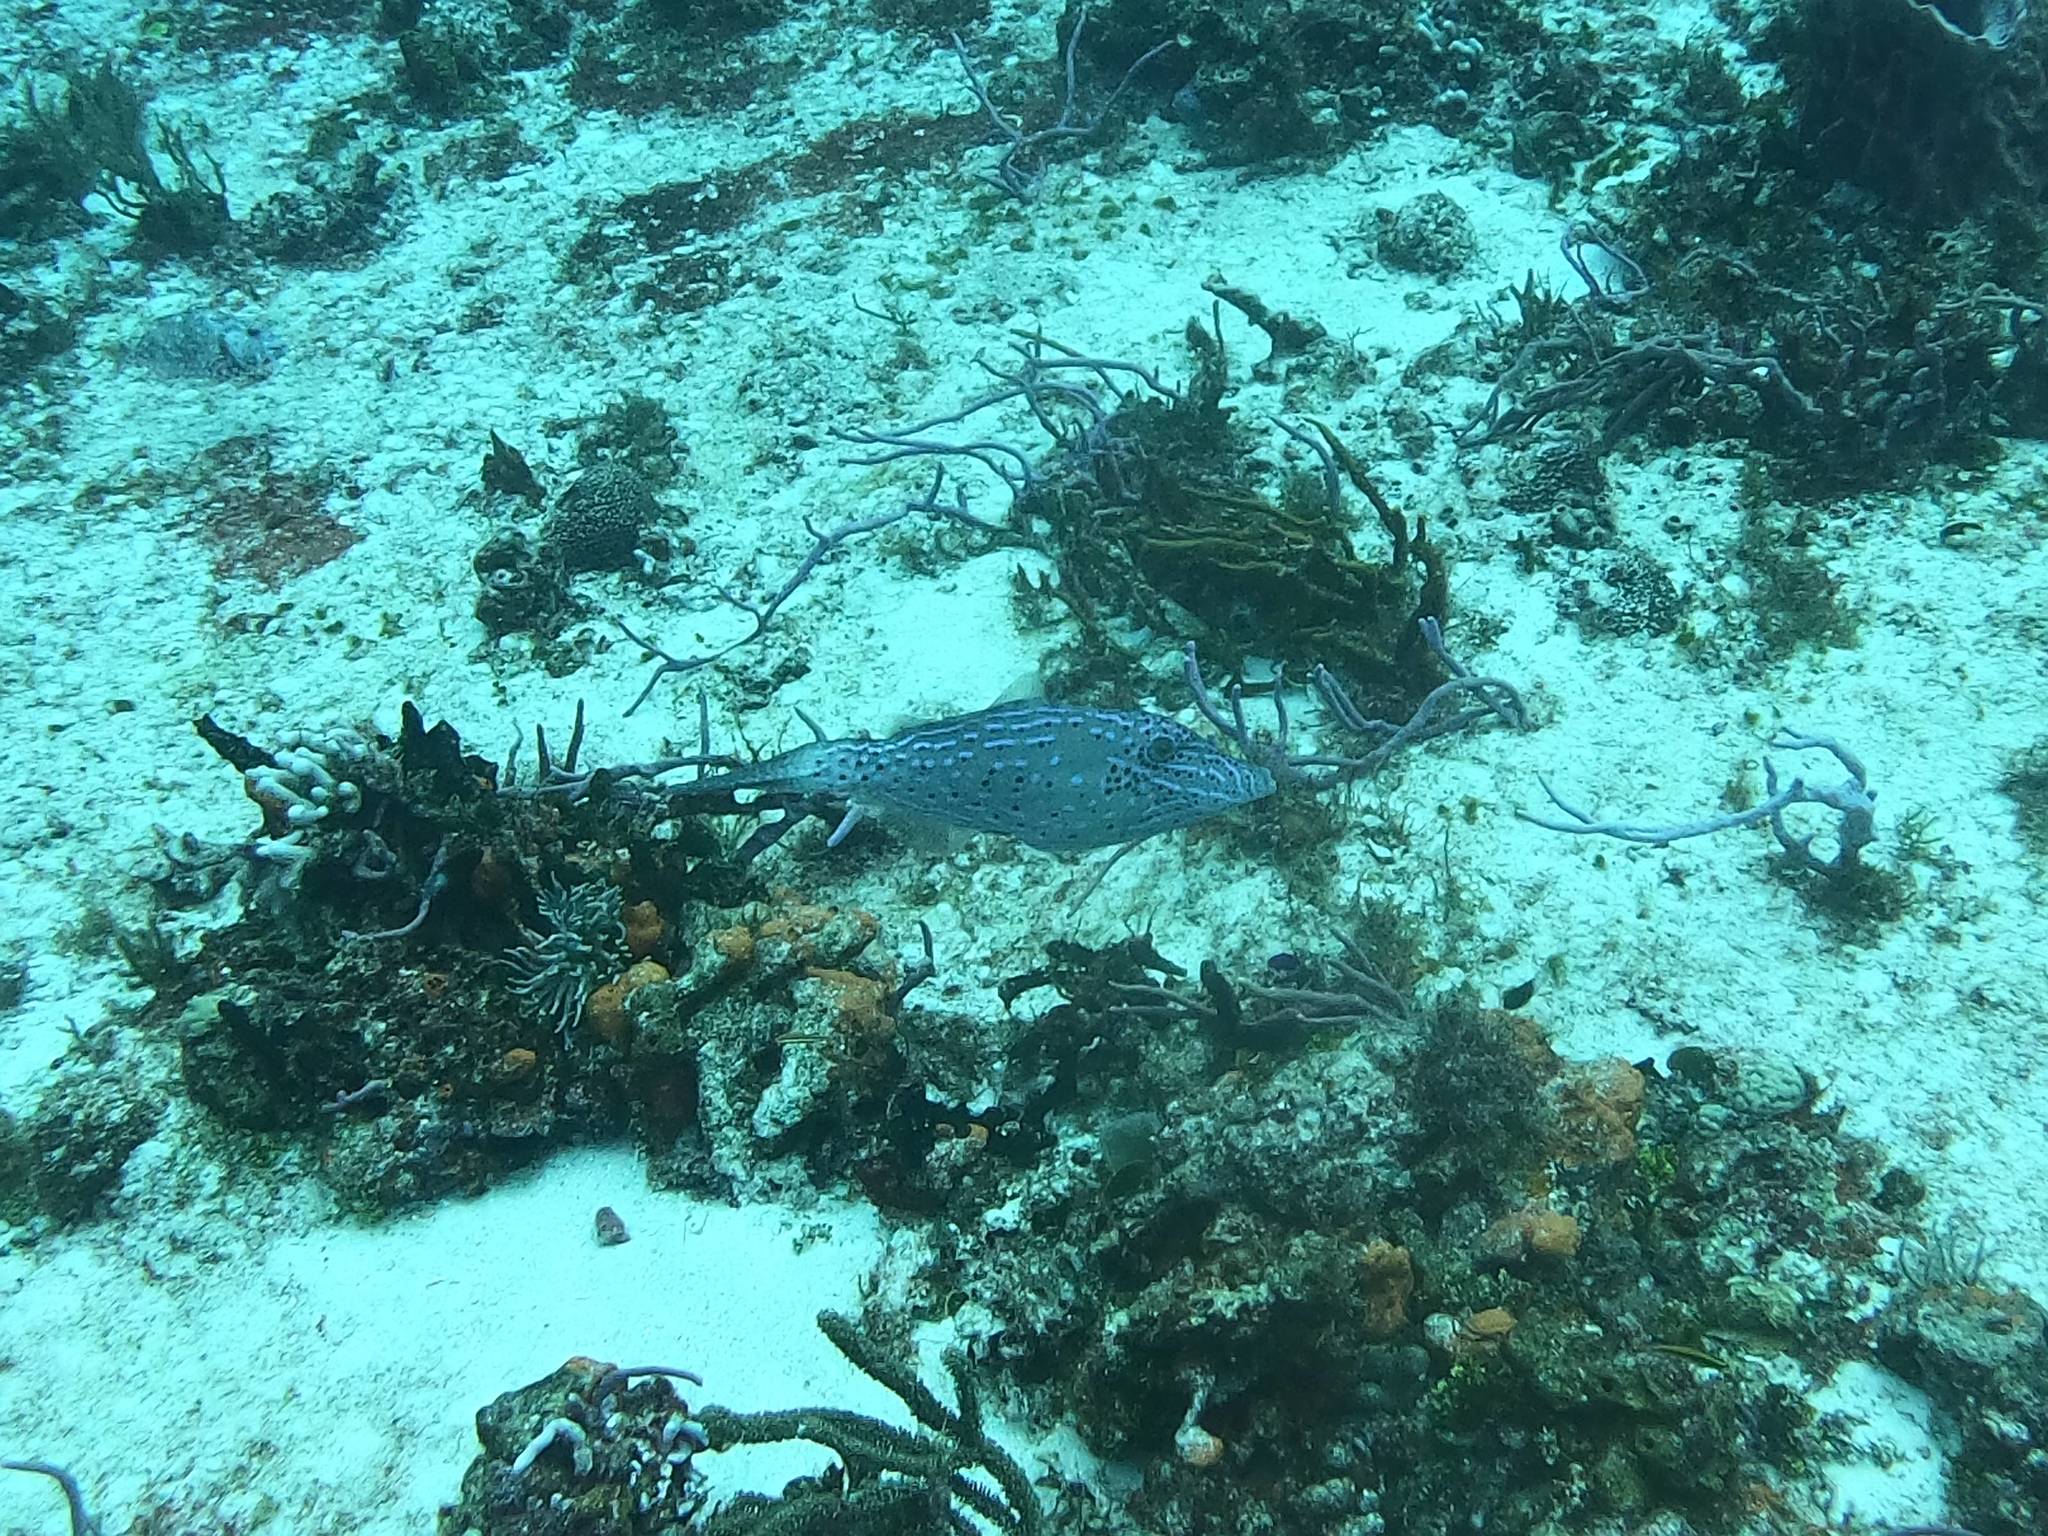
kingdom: Animalia
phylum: Chordata
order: Tetraodontiformes
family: Monacanthidae
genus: Aluterus
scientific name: Aluterus scriptus
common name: Scribbled leatherjacket filefish
